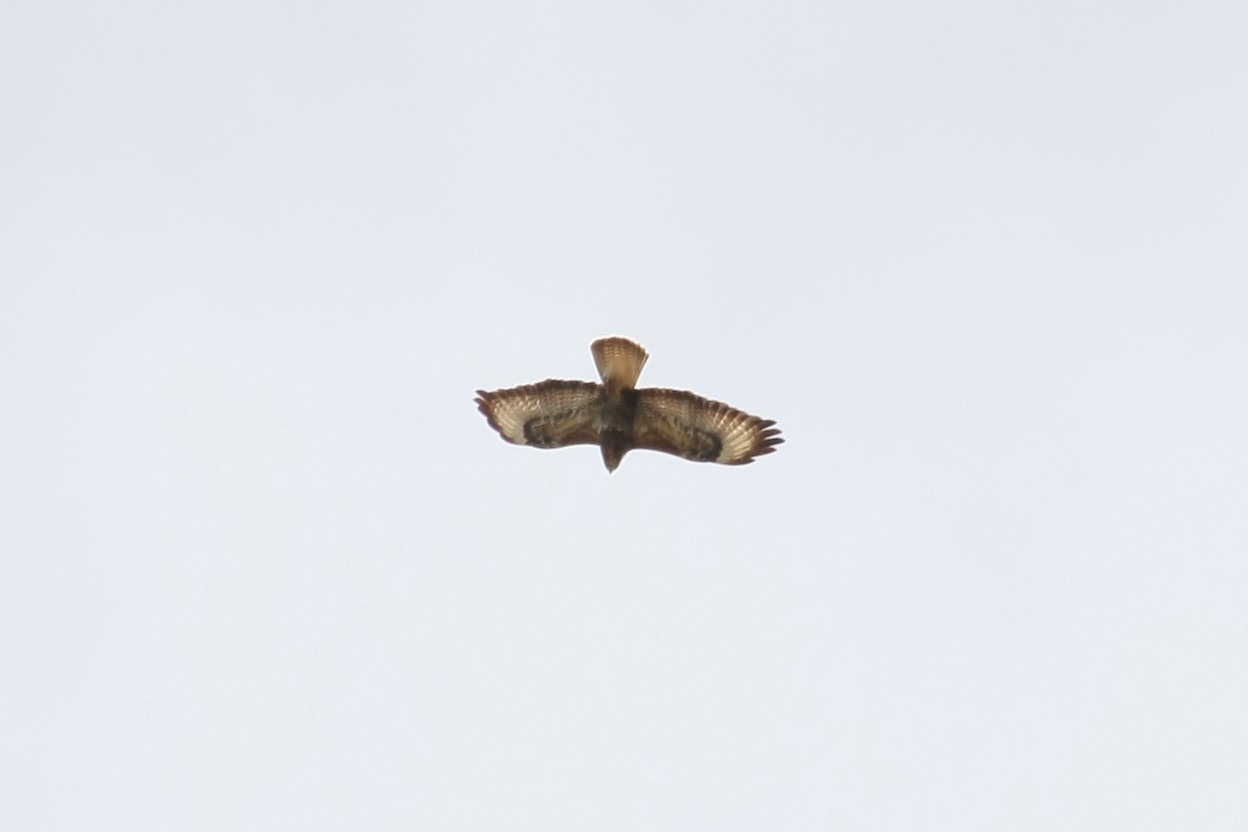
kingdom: Animalia
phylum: Chordata
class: Aves
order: Accipitriformes
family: Accipitridae
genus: Buteo
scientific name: Buteo buteo
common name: Common buzzard
